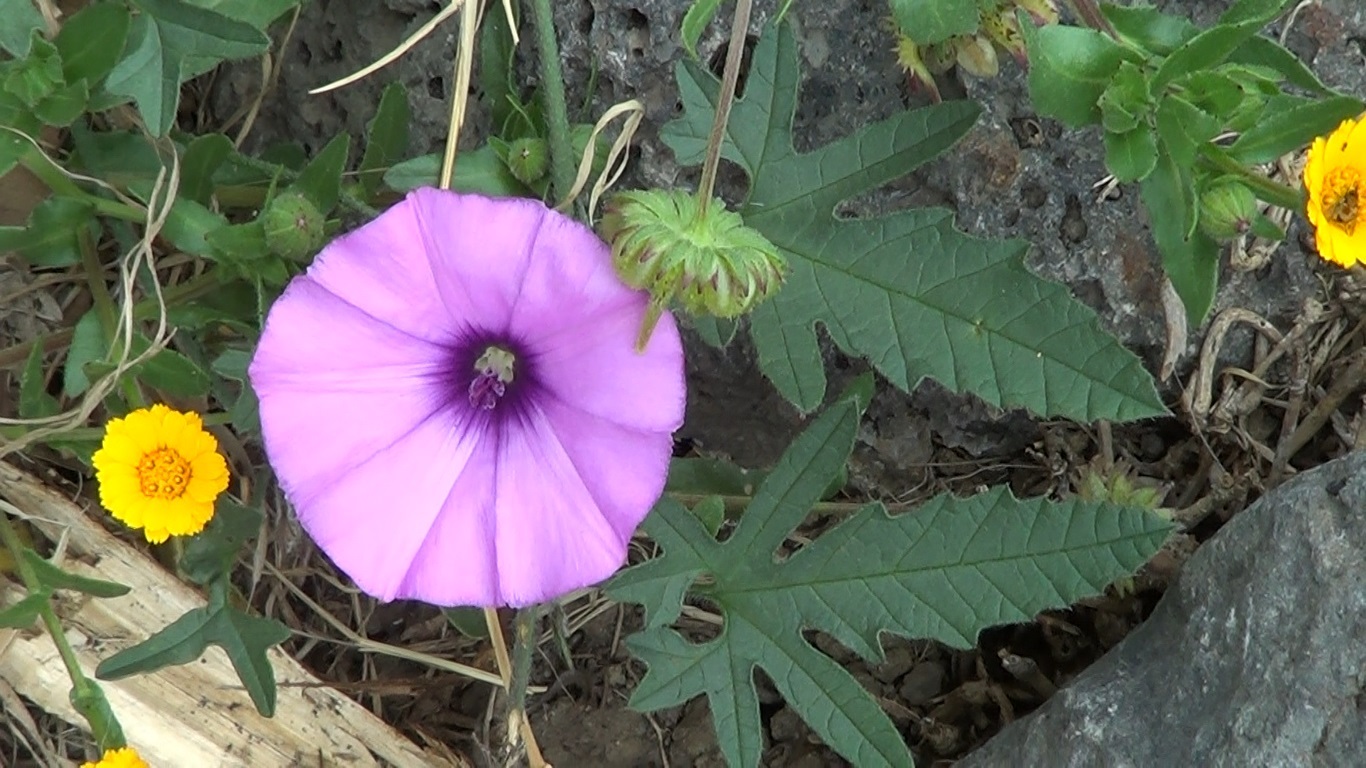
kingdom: Plantae
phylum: Tracheophyta
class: Magnoliopsida
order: Solanales
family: Convolvulaceae
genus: Convolvulus
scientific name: Convolvulus althaeoides
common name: Mallow bindweed
